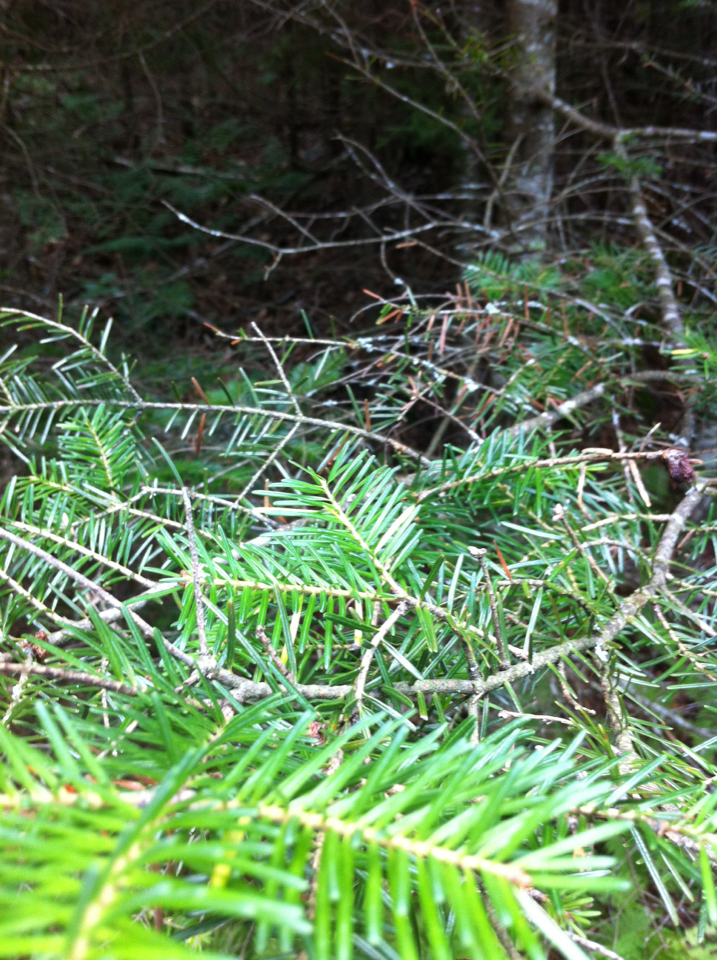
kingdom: Plantae
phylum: Tracheophyta
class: Pinopsida
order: Pinales
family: Pinaceae
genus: Abies
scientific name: Abies balsamea
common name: Balsam fir
